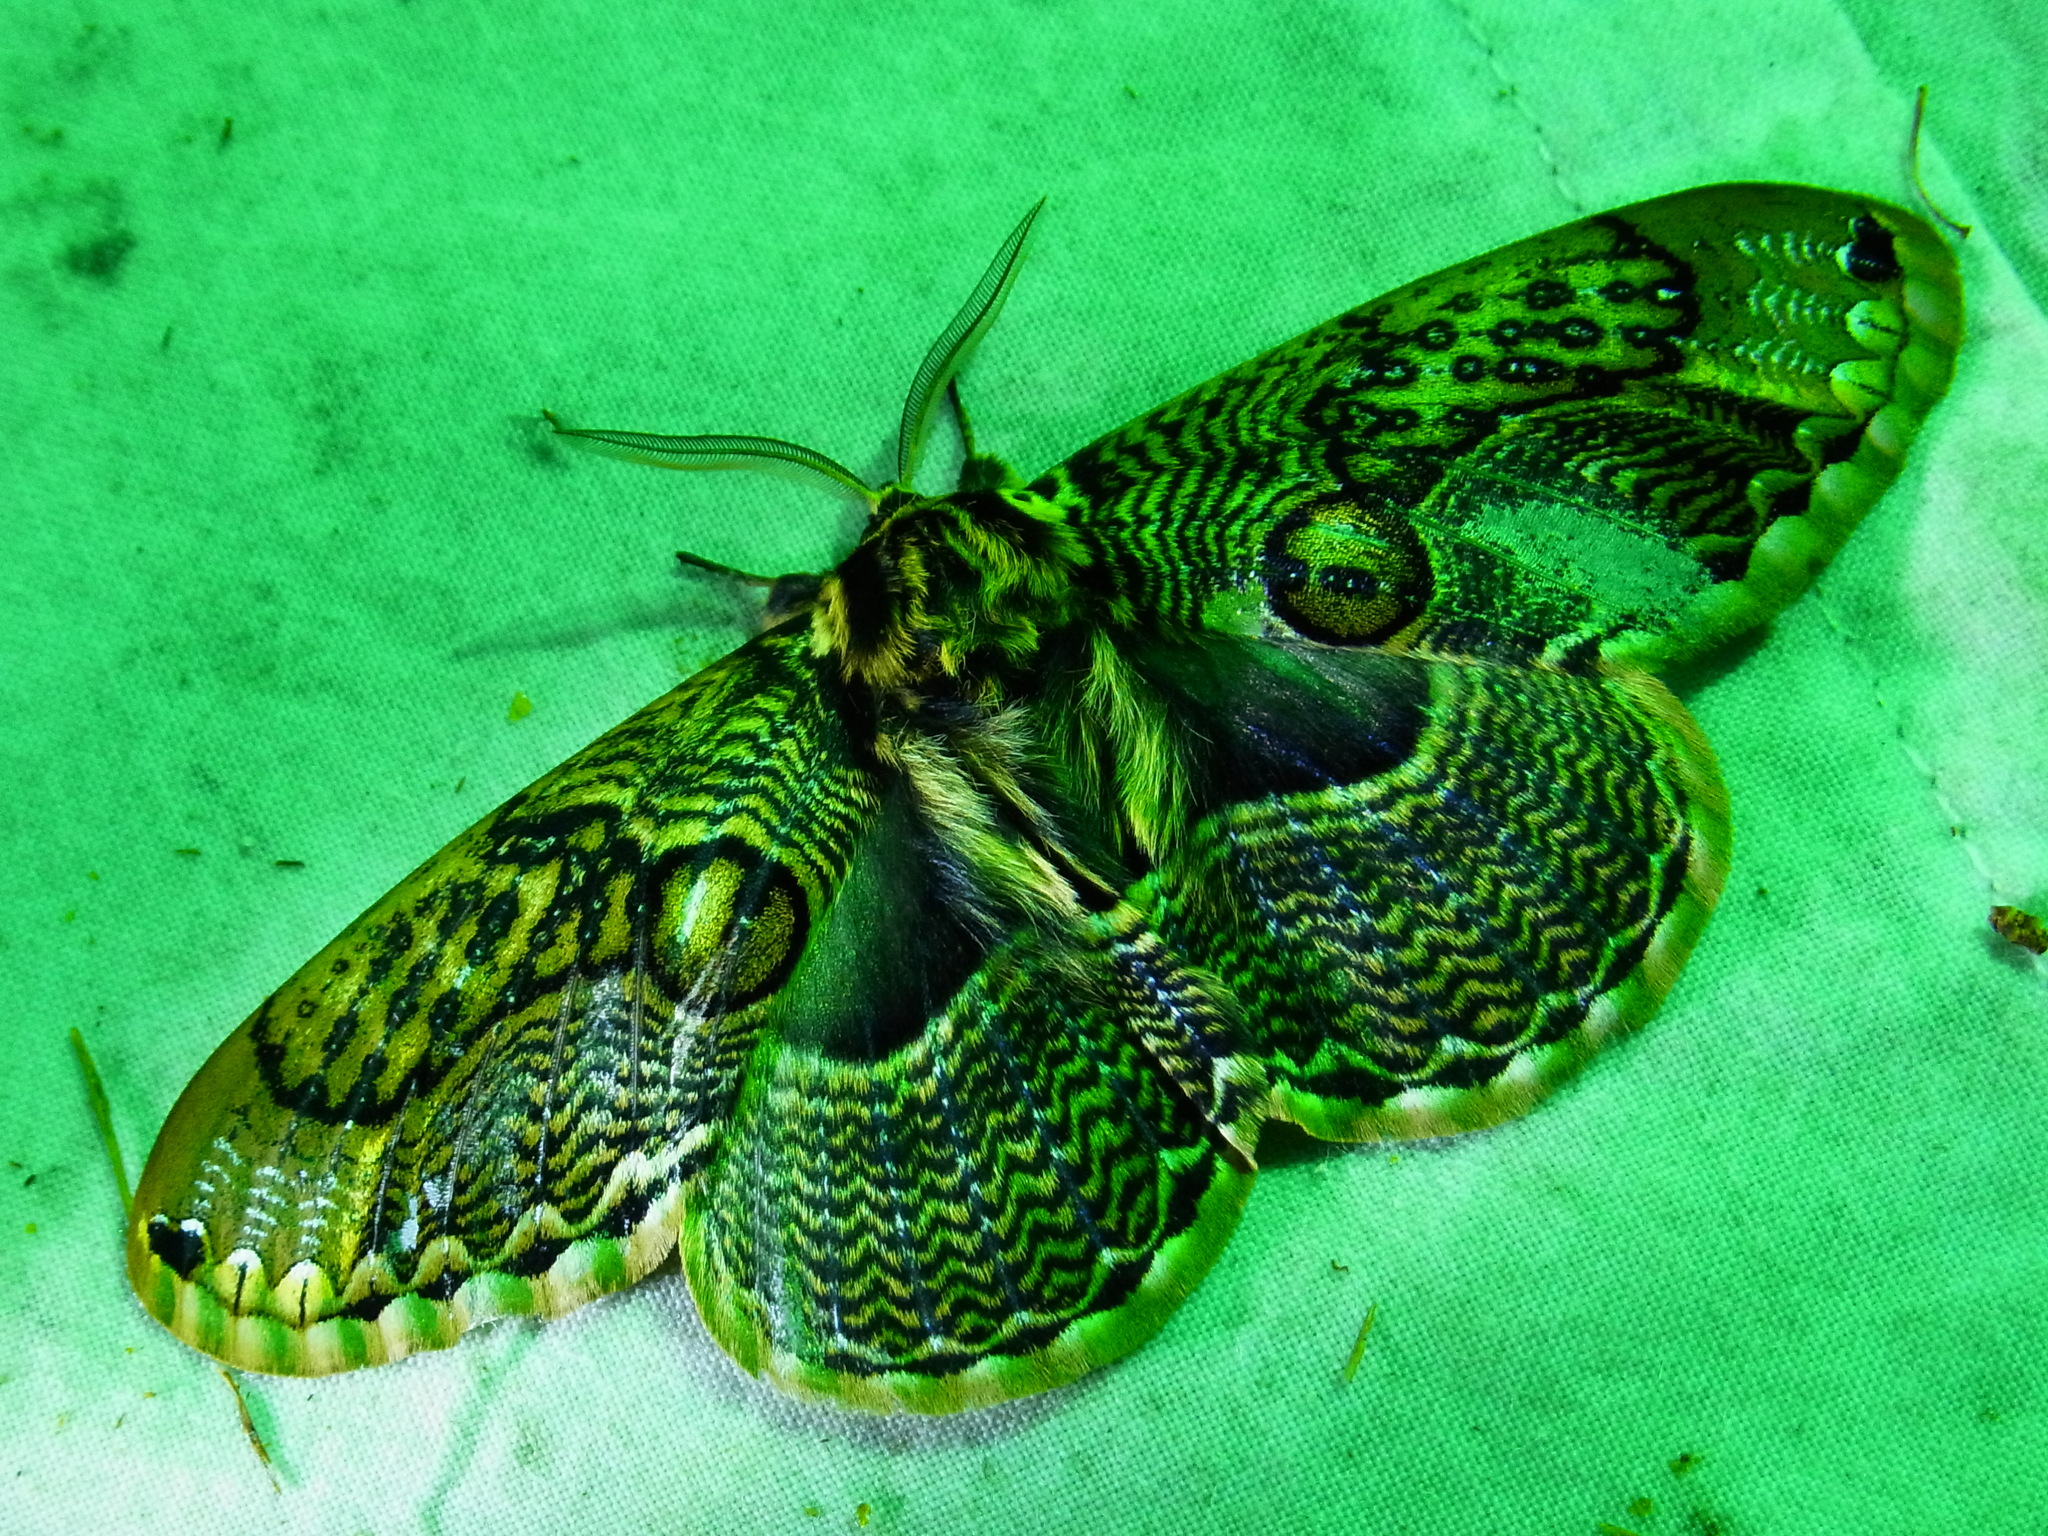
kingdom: Animalia
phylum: Arthropoda
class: Insecta
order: Lepidoptera
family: Brahmaeidae
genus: Brahmaea
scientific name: Brahmaea japonica
